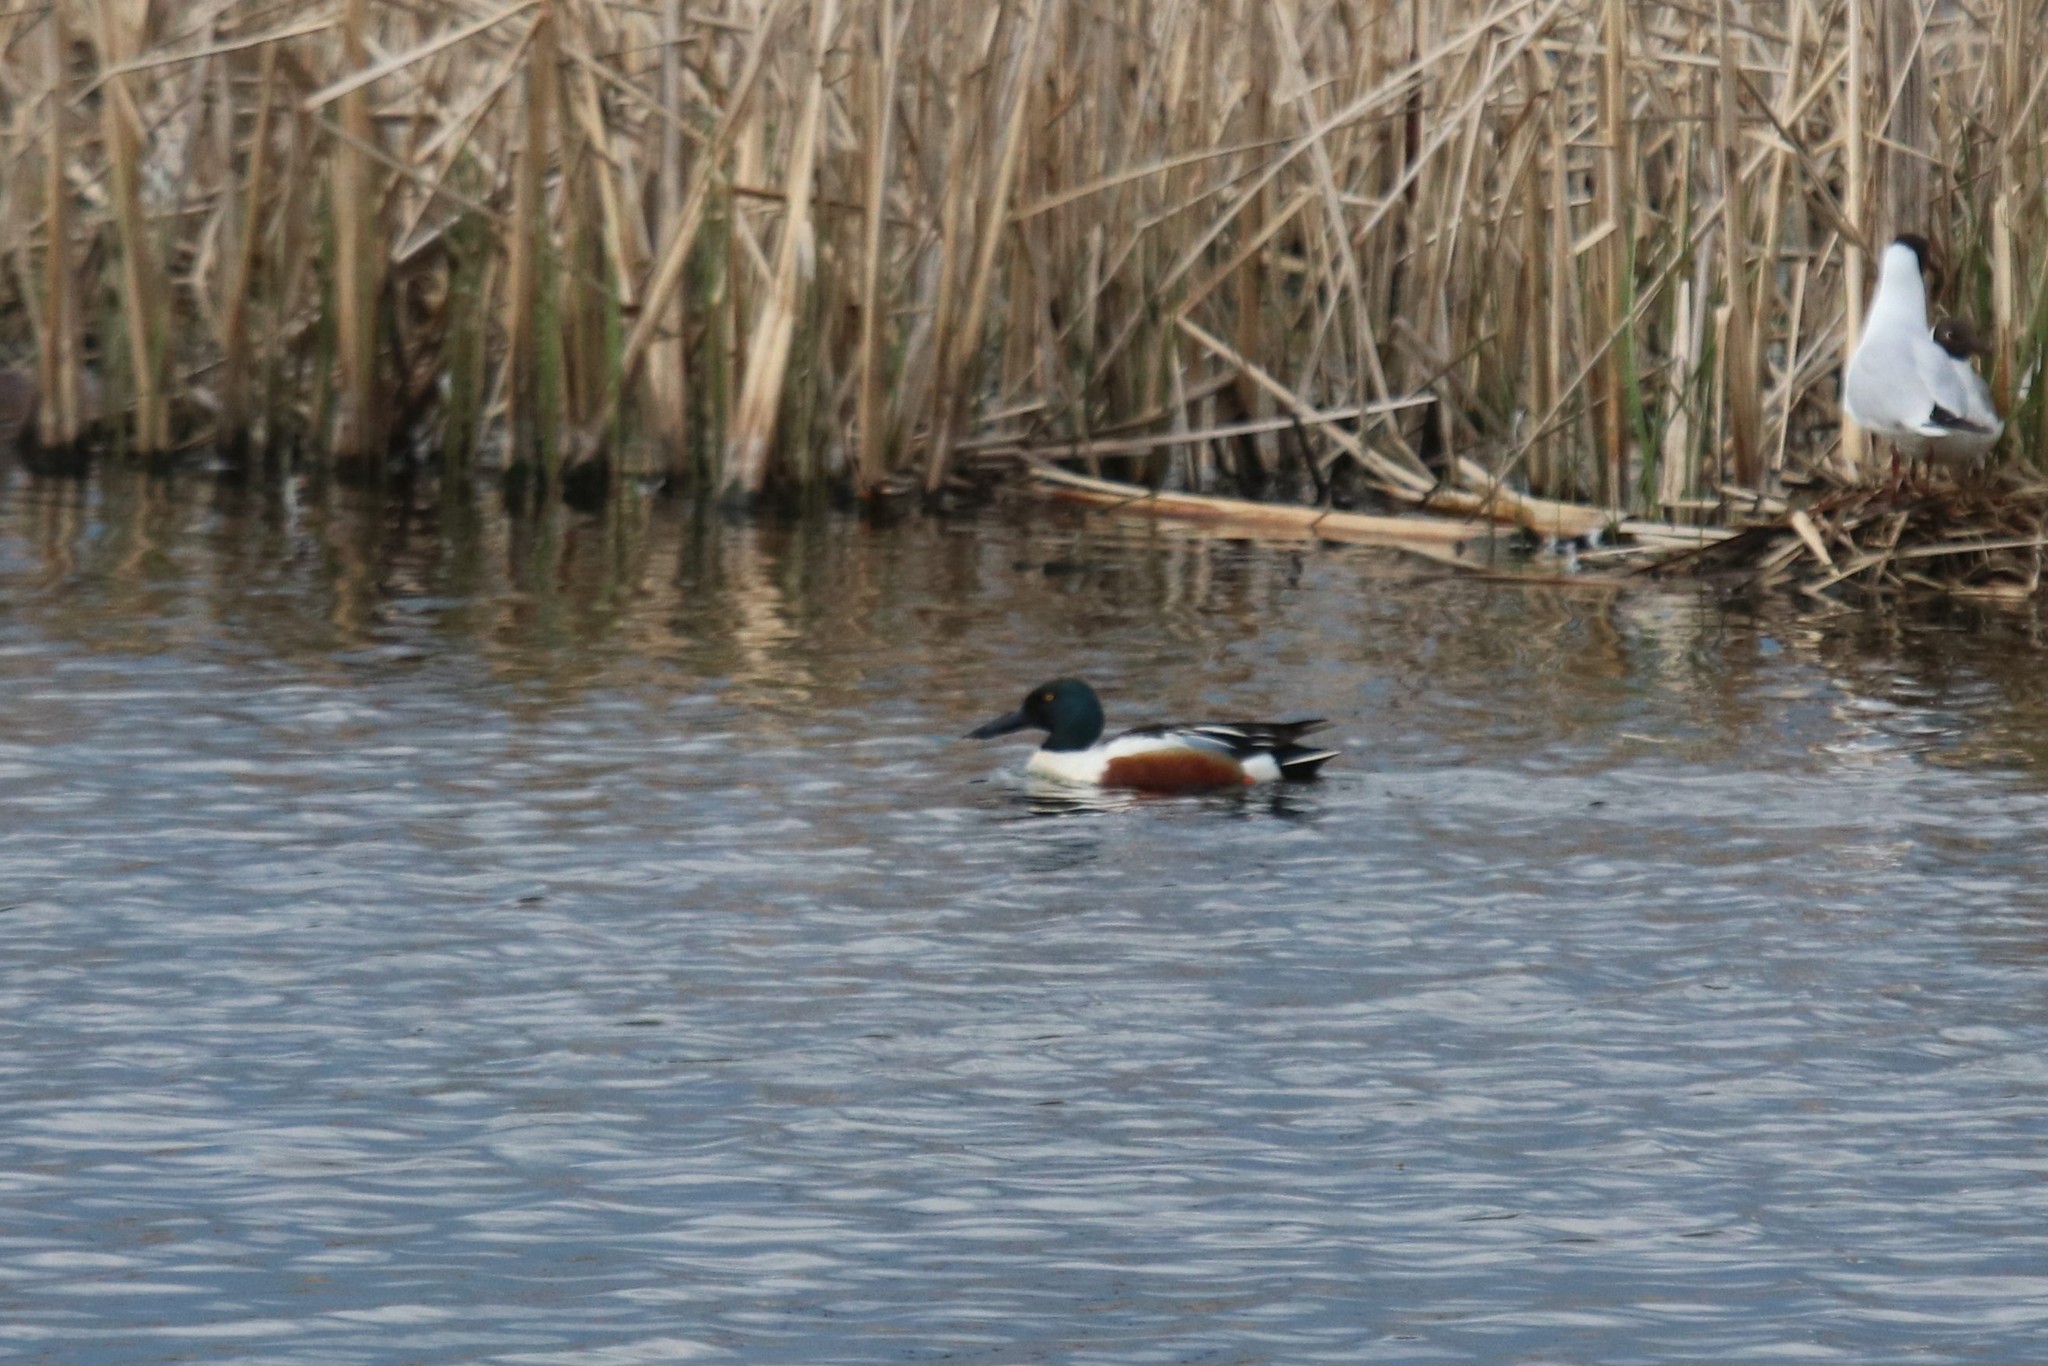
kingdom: Animalia
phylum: Chordata
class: Aves
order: Anseriformes
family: Anatidae
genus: Spatula
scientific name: Spatula clypeata
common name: Northern shoveler
